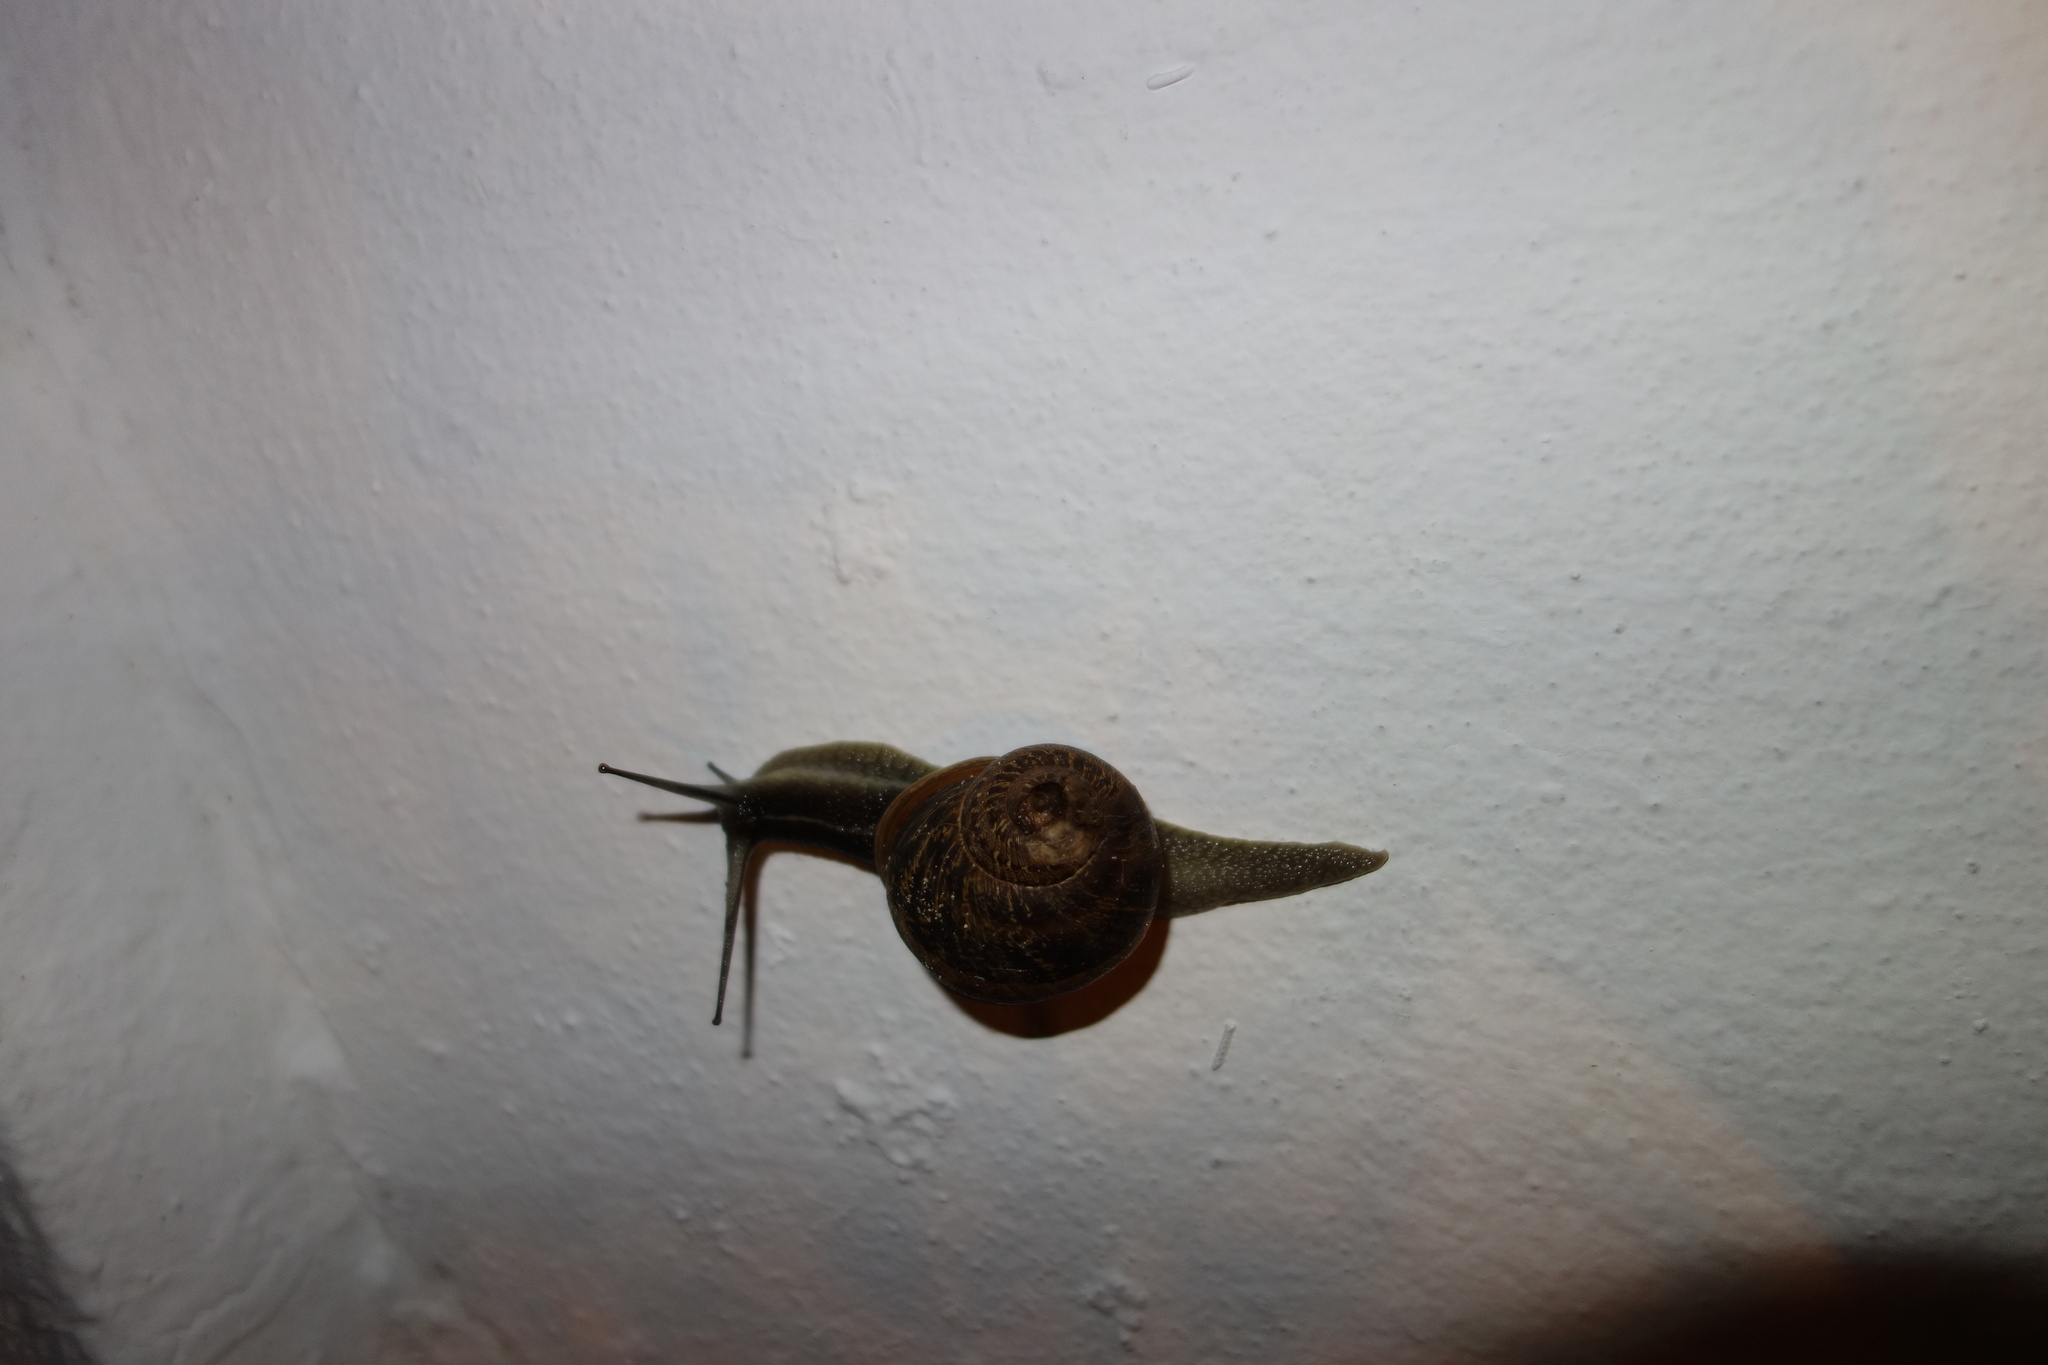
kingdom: Animalia
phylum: Mollusca
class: Gastropoda
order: Stylommatophora
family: Helicidae
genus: Cornu
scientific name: Cornu aspersum
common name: Brown garden snail
